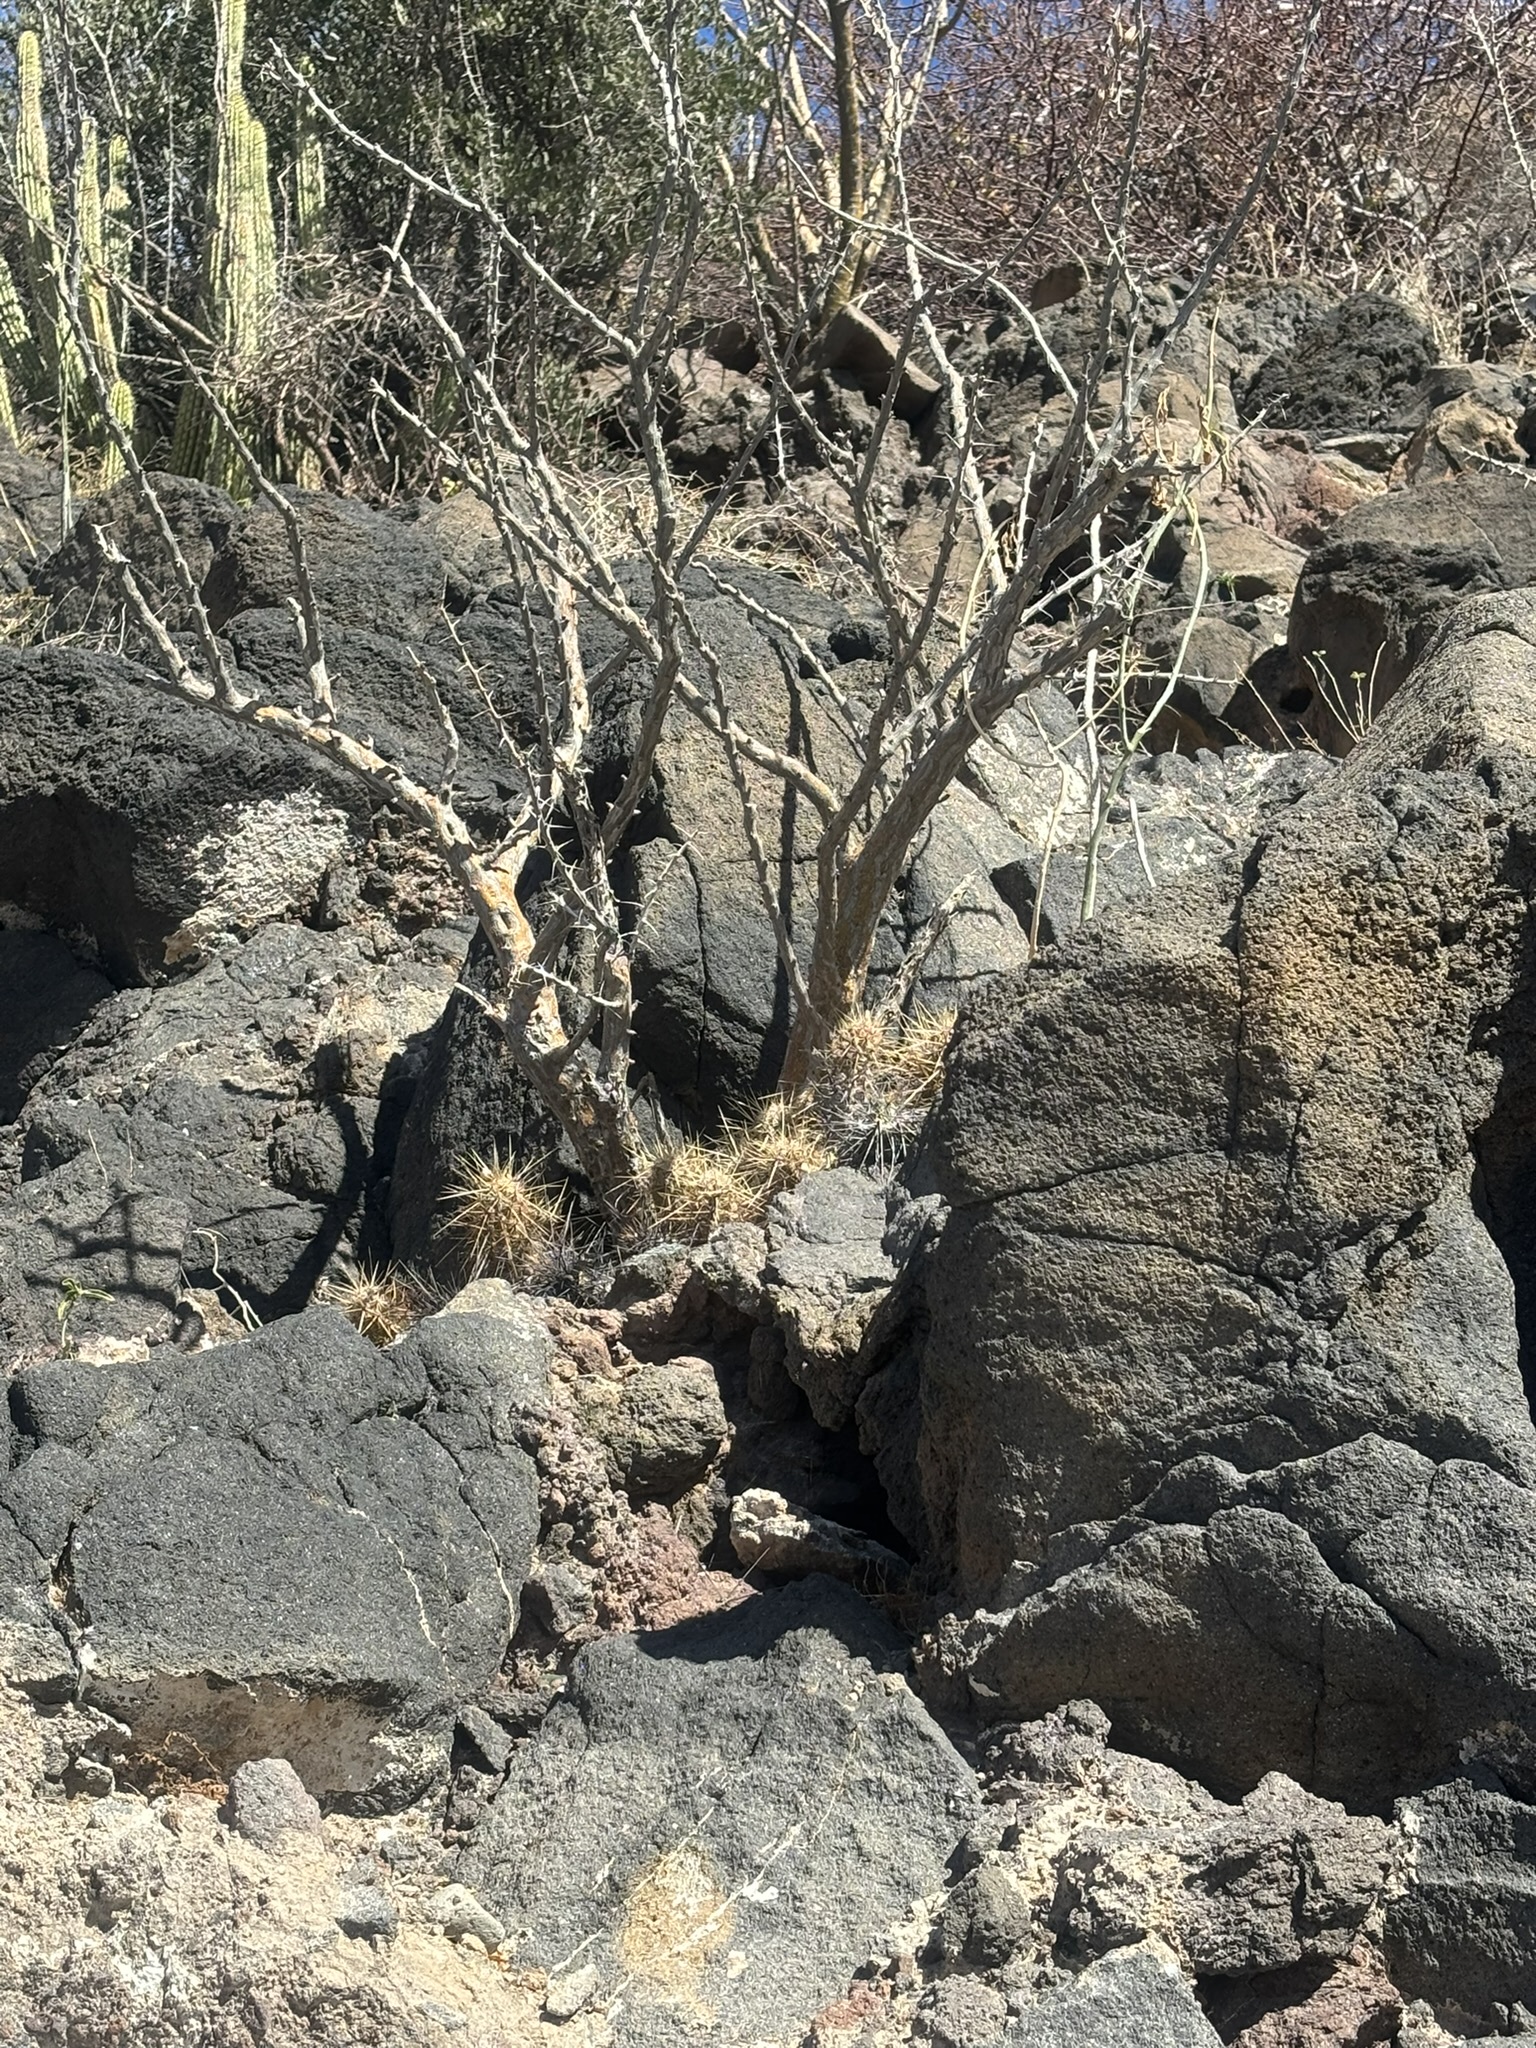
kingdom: Plantae
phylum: Tracheophyta
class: Magnoliopsida
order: Caryophyllales
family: Cactaceae
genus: Echinocereus
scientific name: Echinocereus brandegeei
